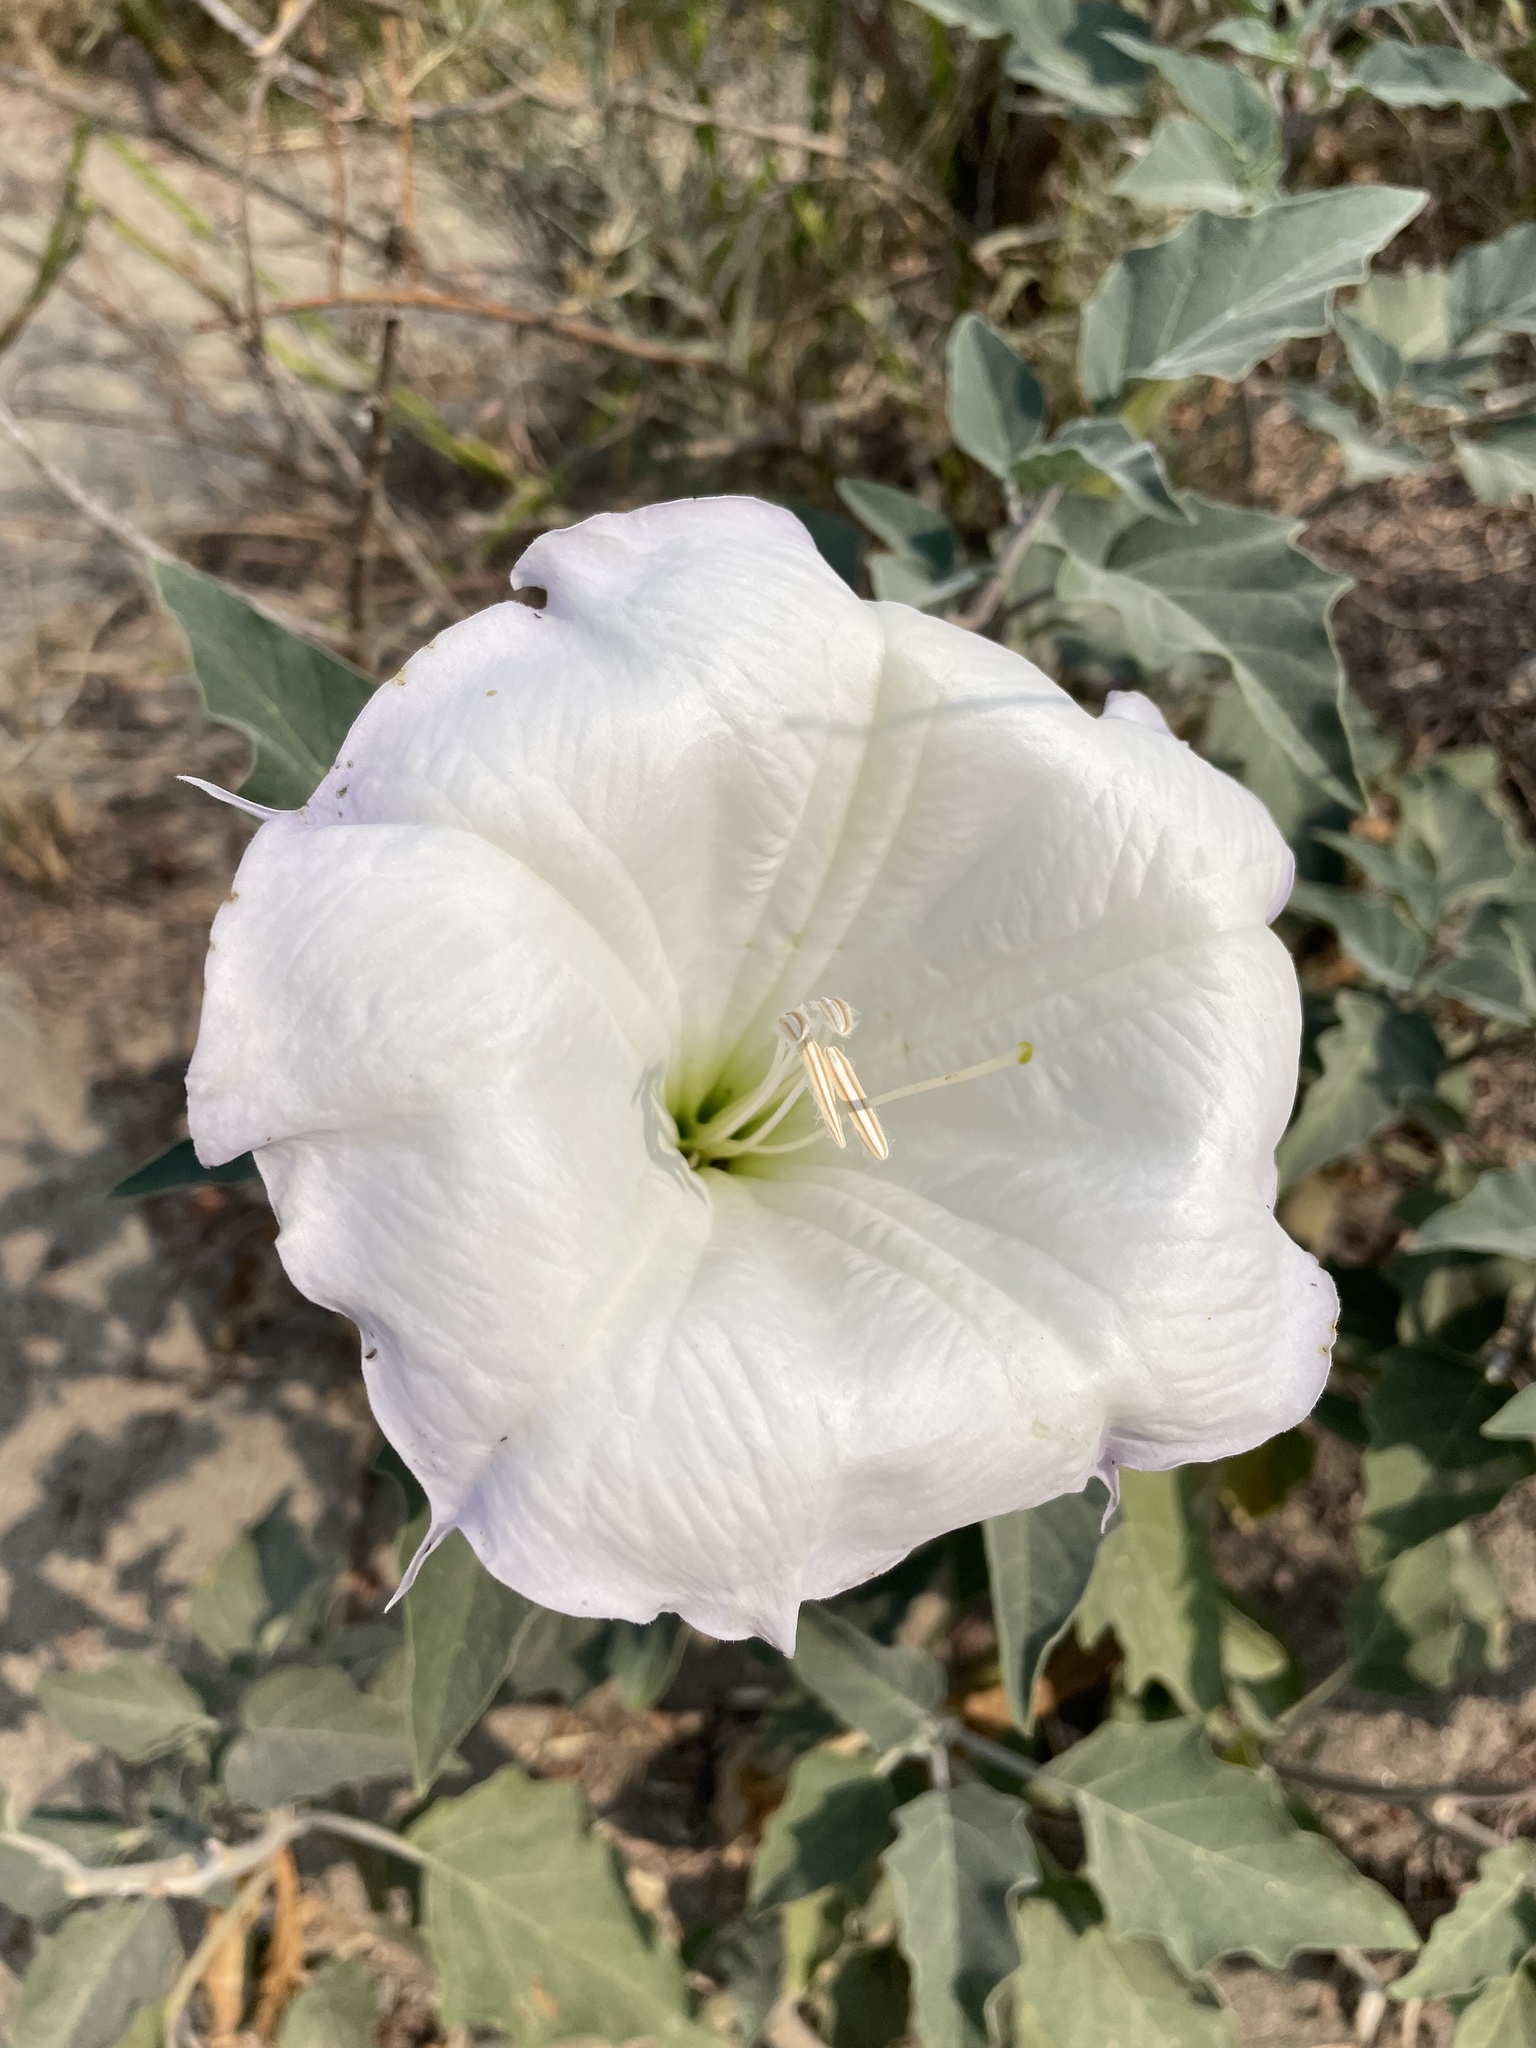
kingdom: Plantae
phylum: Tracheophyta
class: Magnoliopsida
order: Solanales
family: Solanaceae
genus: Datura
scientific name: Datura wrightii
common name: Sacred thorn-apple
